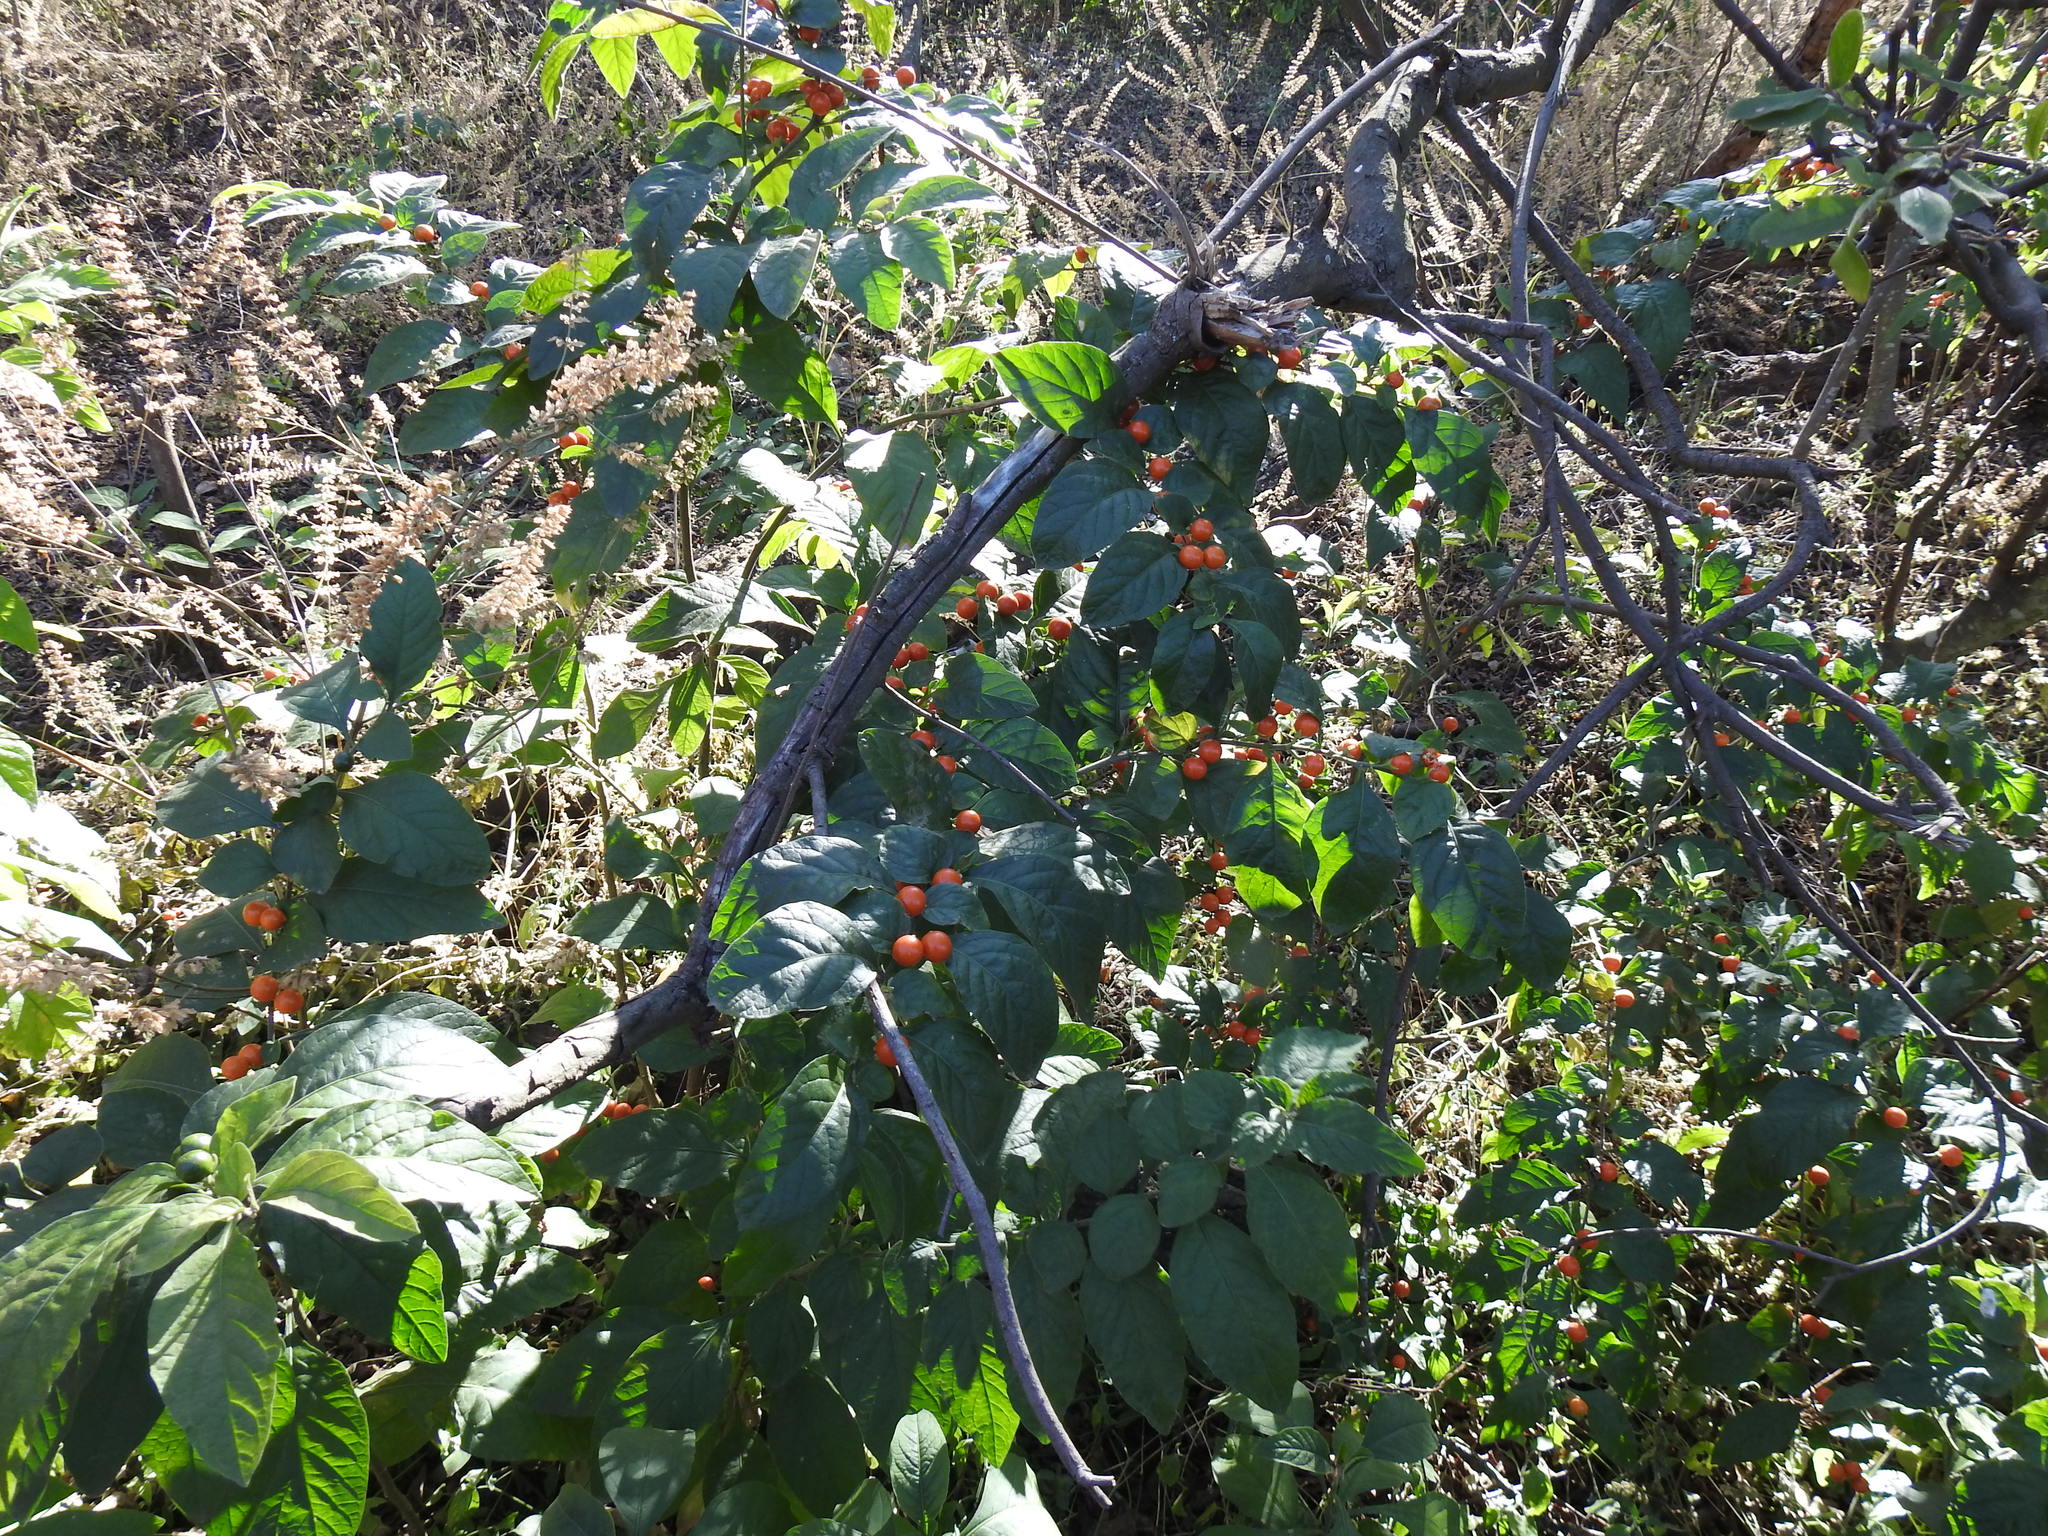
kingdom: Plantae
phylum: Tracheophyta
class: Magnoliopsida
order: Solanales
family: Solanaceae
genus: Solanum
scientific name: Solanum pseudocapsicum
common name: Jerusalem cherry
